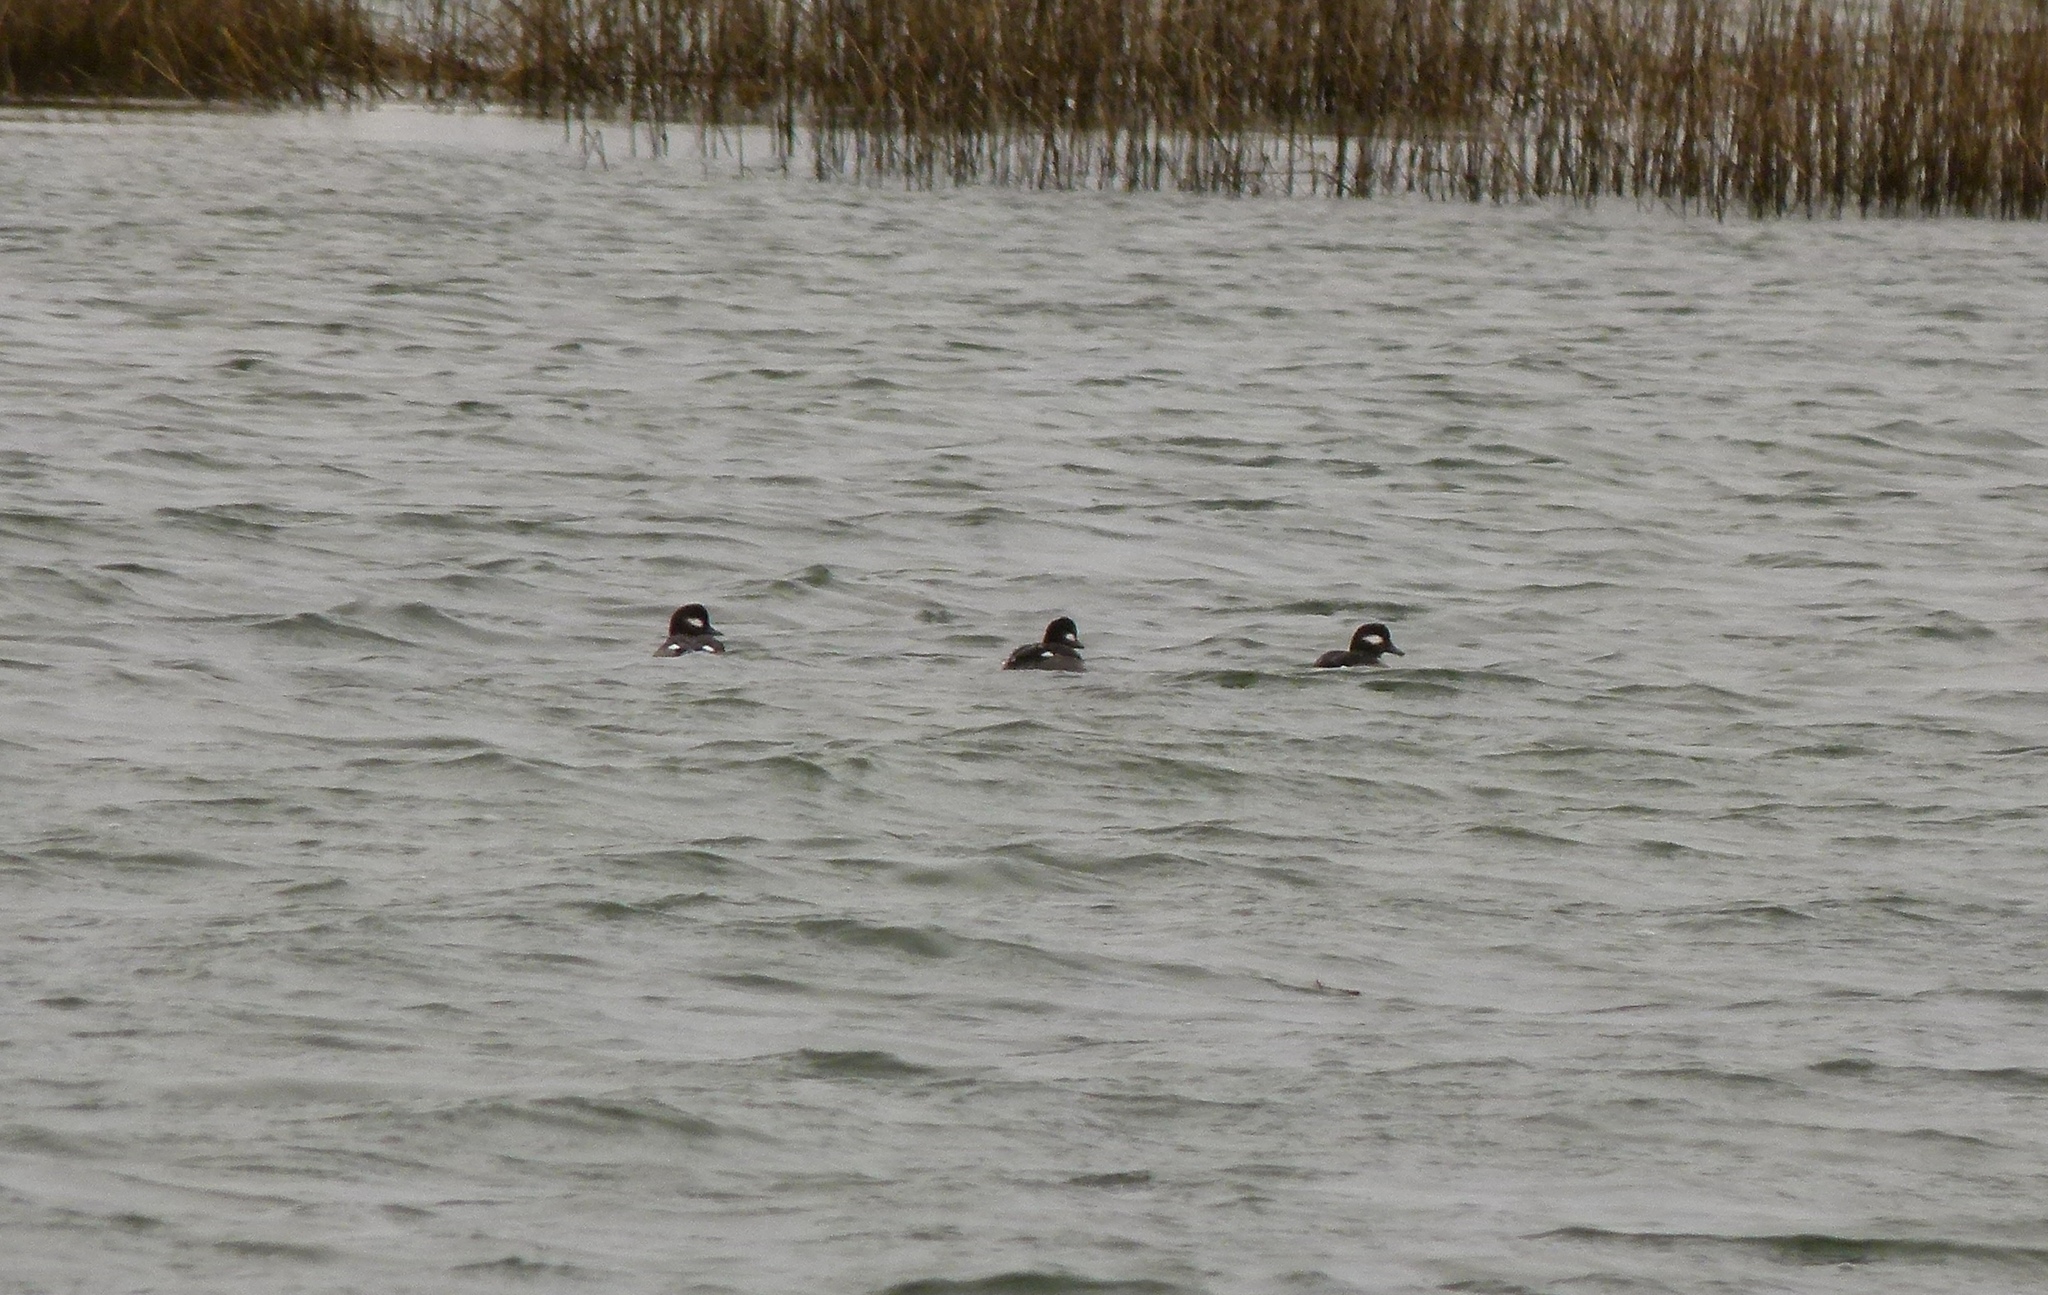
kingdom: Animalia
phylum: Chordata
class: Aves
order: Anseriformes
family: Anatidae
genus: Bucephala
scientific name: Bucephala albeola
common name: Bufflehead
